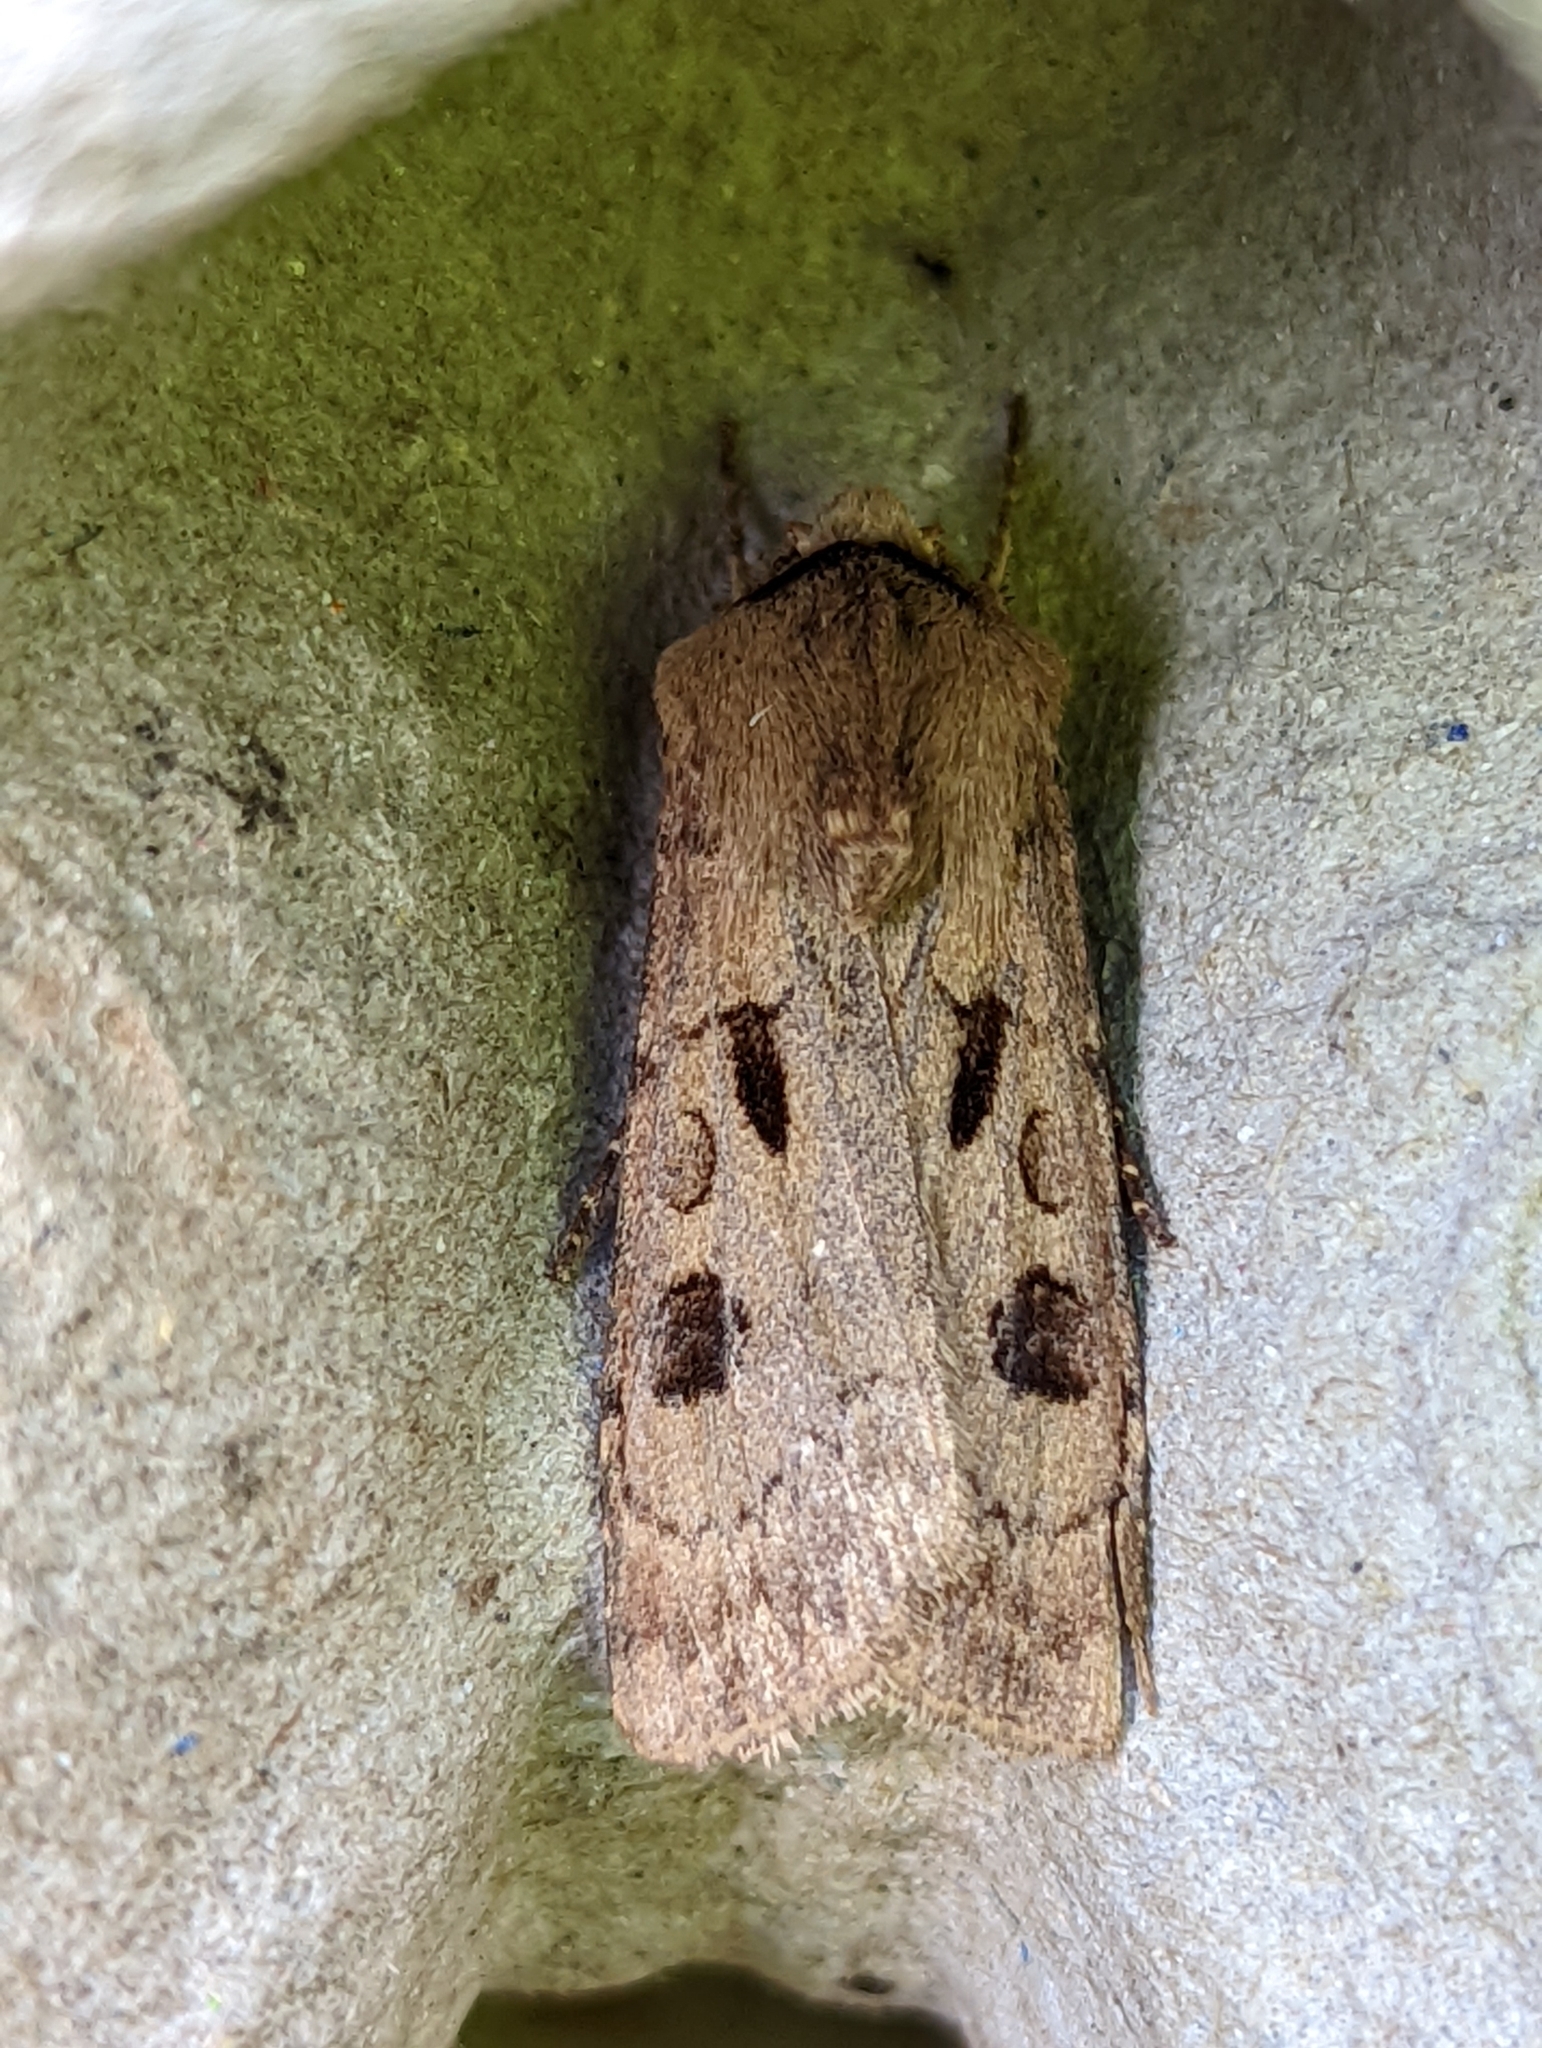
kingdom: Animalia
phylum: Arthropoda
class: Insecta
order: Lepidoptera
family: Noctuidae
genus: Agrotis
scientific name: Agrotis exclamationis
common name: Heart and dart
